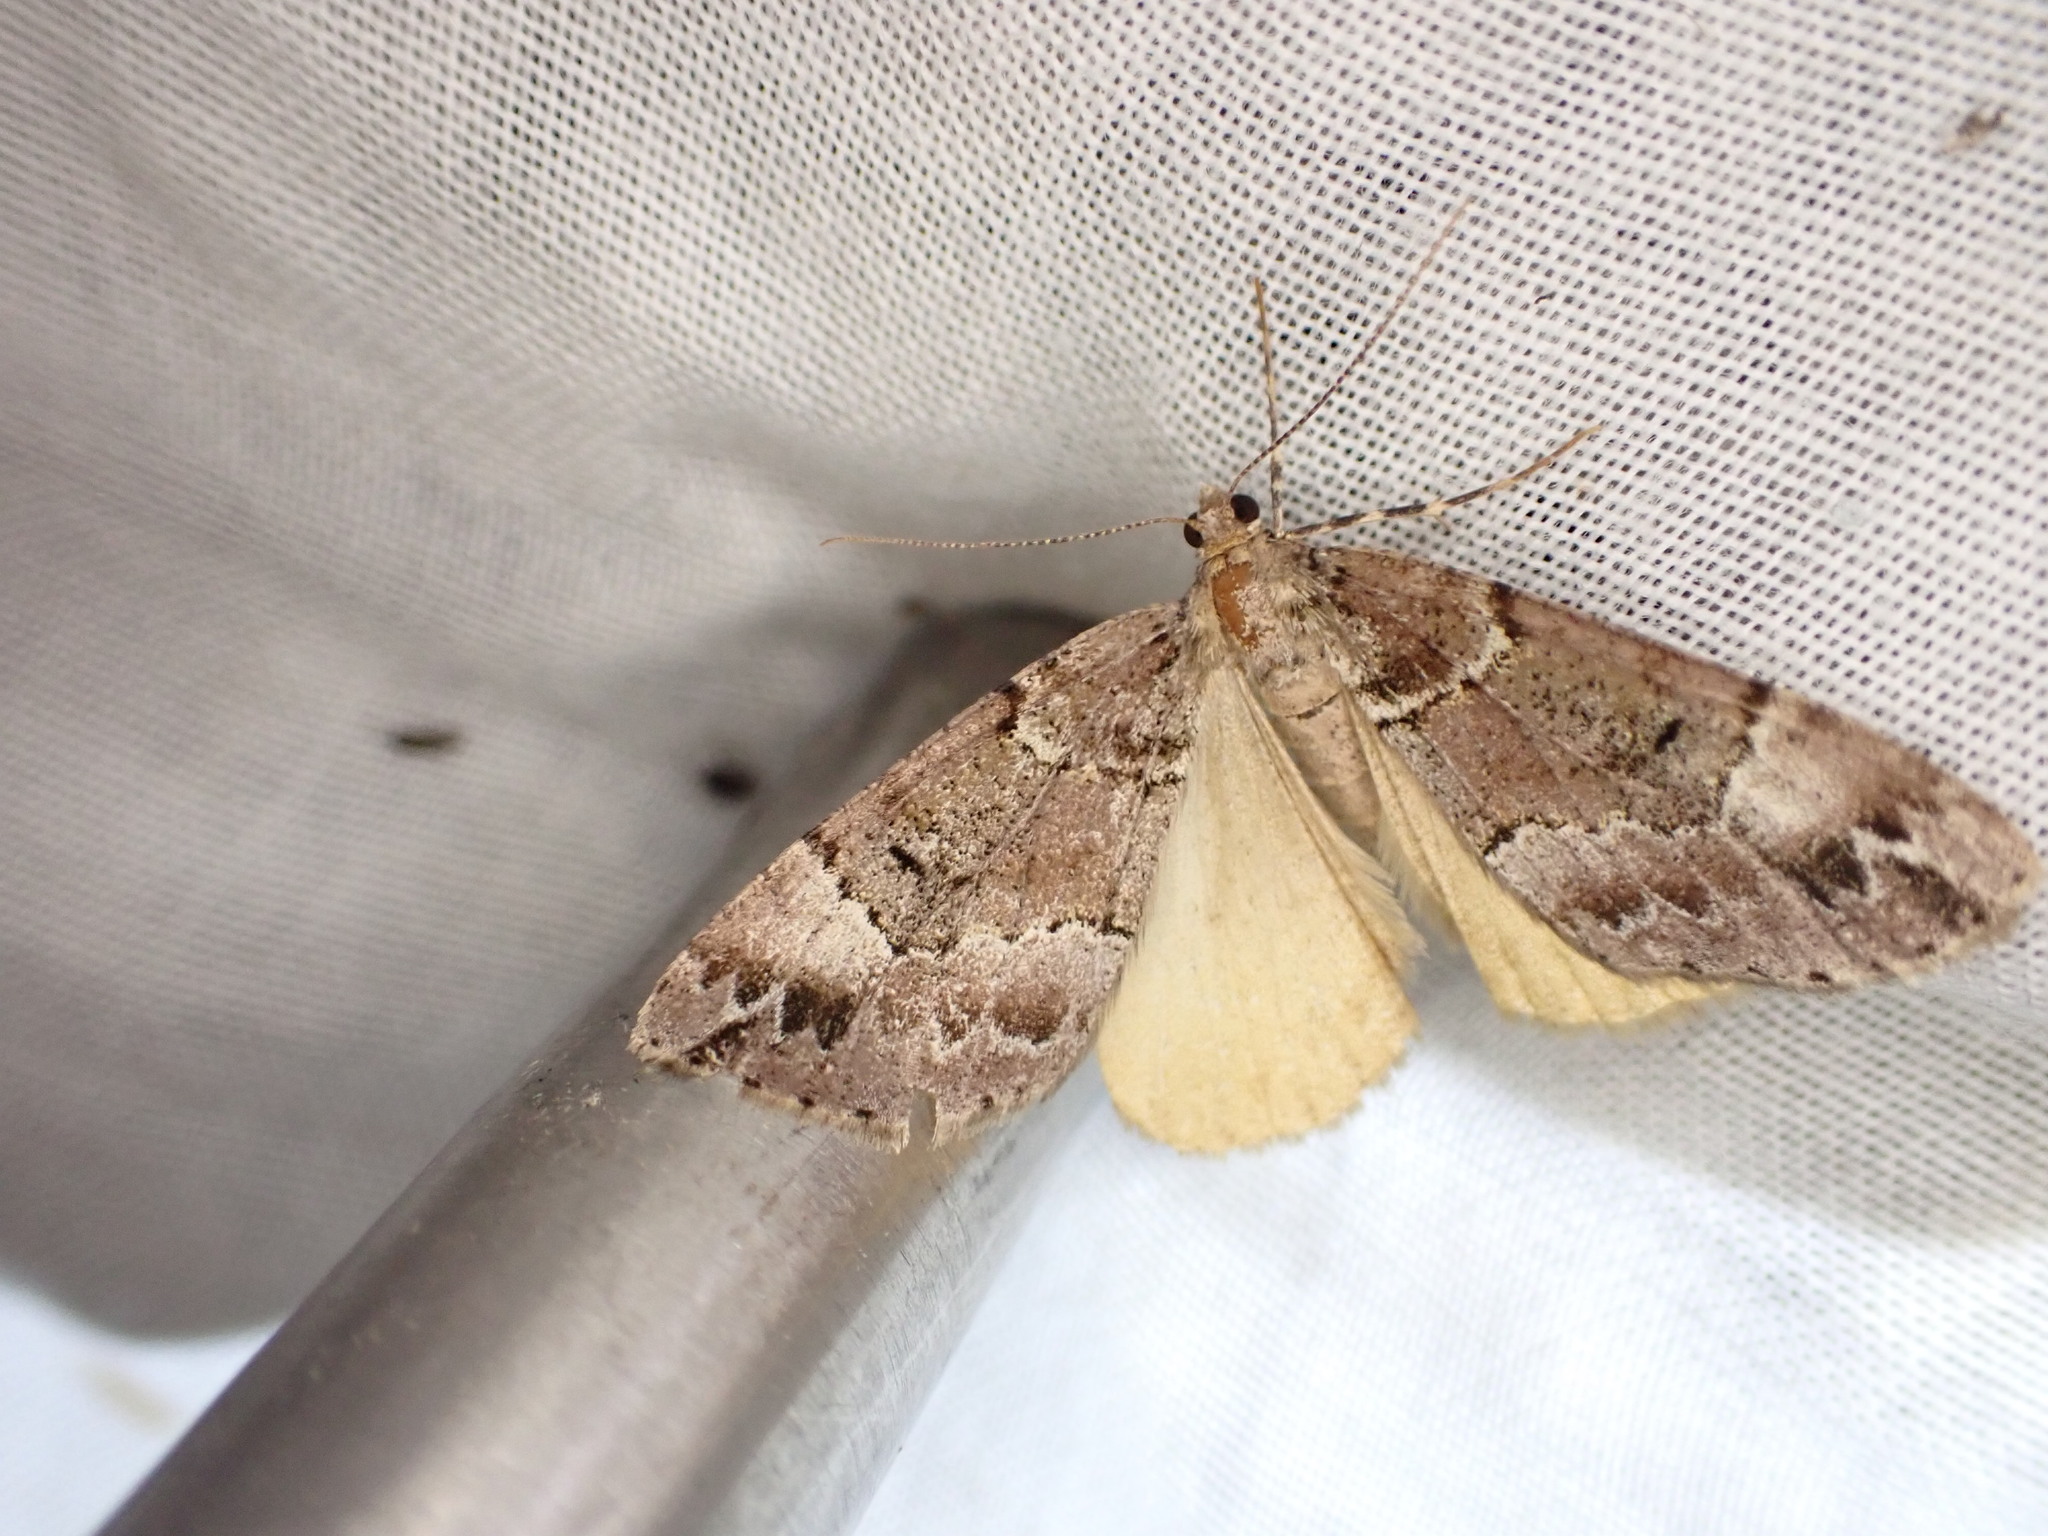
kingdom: Animalia
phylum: Arthropoda
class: Insecta
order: Lepidoptera
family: Geometridae
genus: Pseudocoremia
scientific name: Pseudocoremia productata
